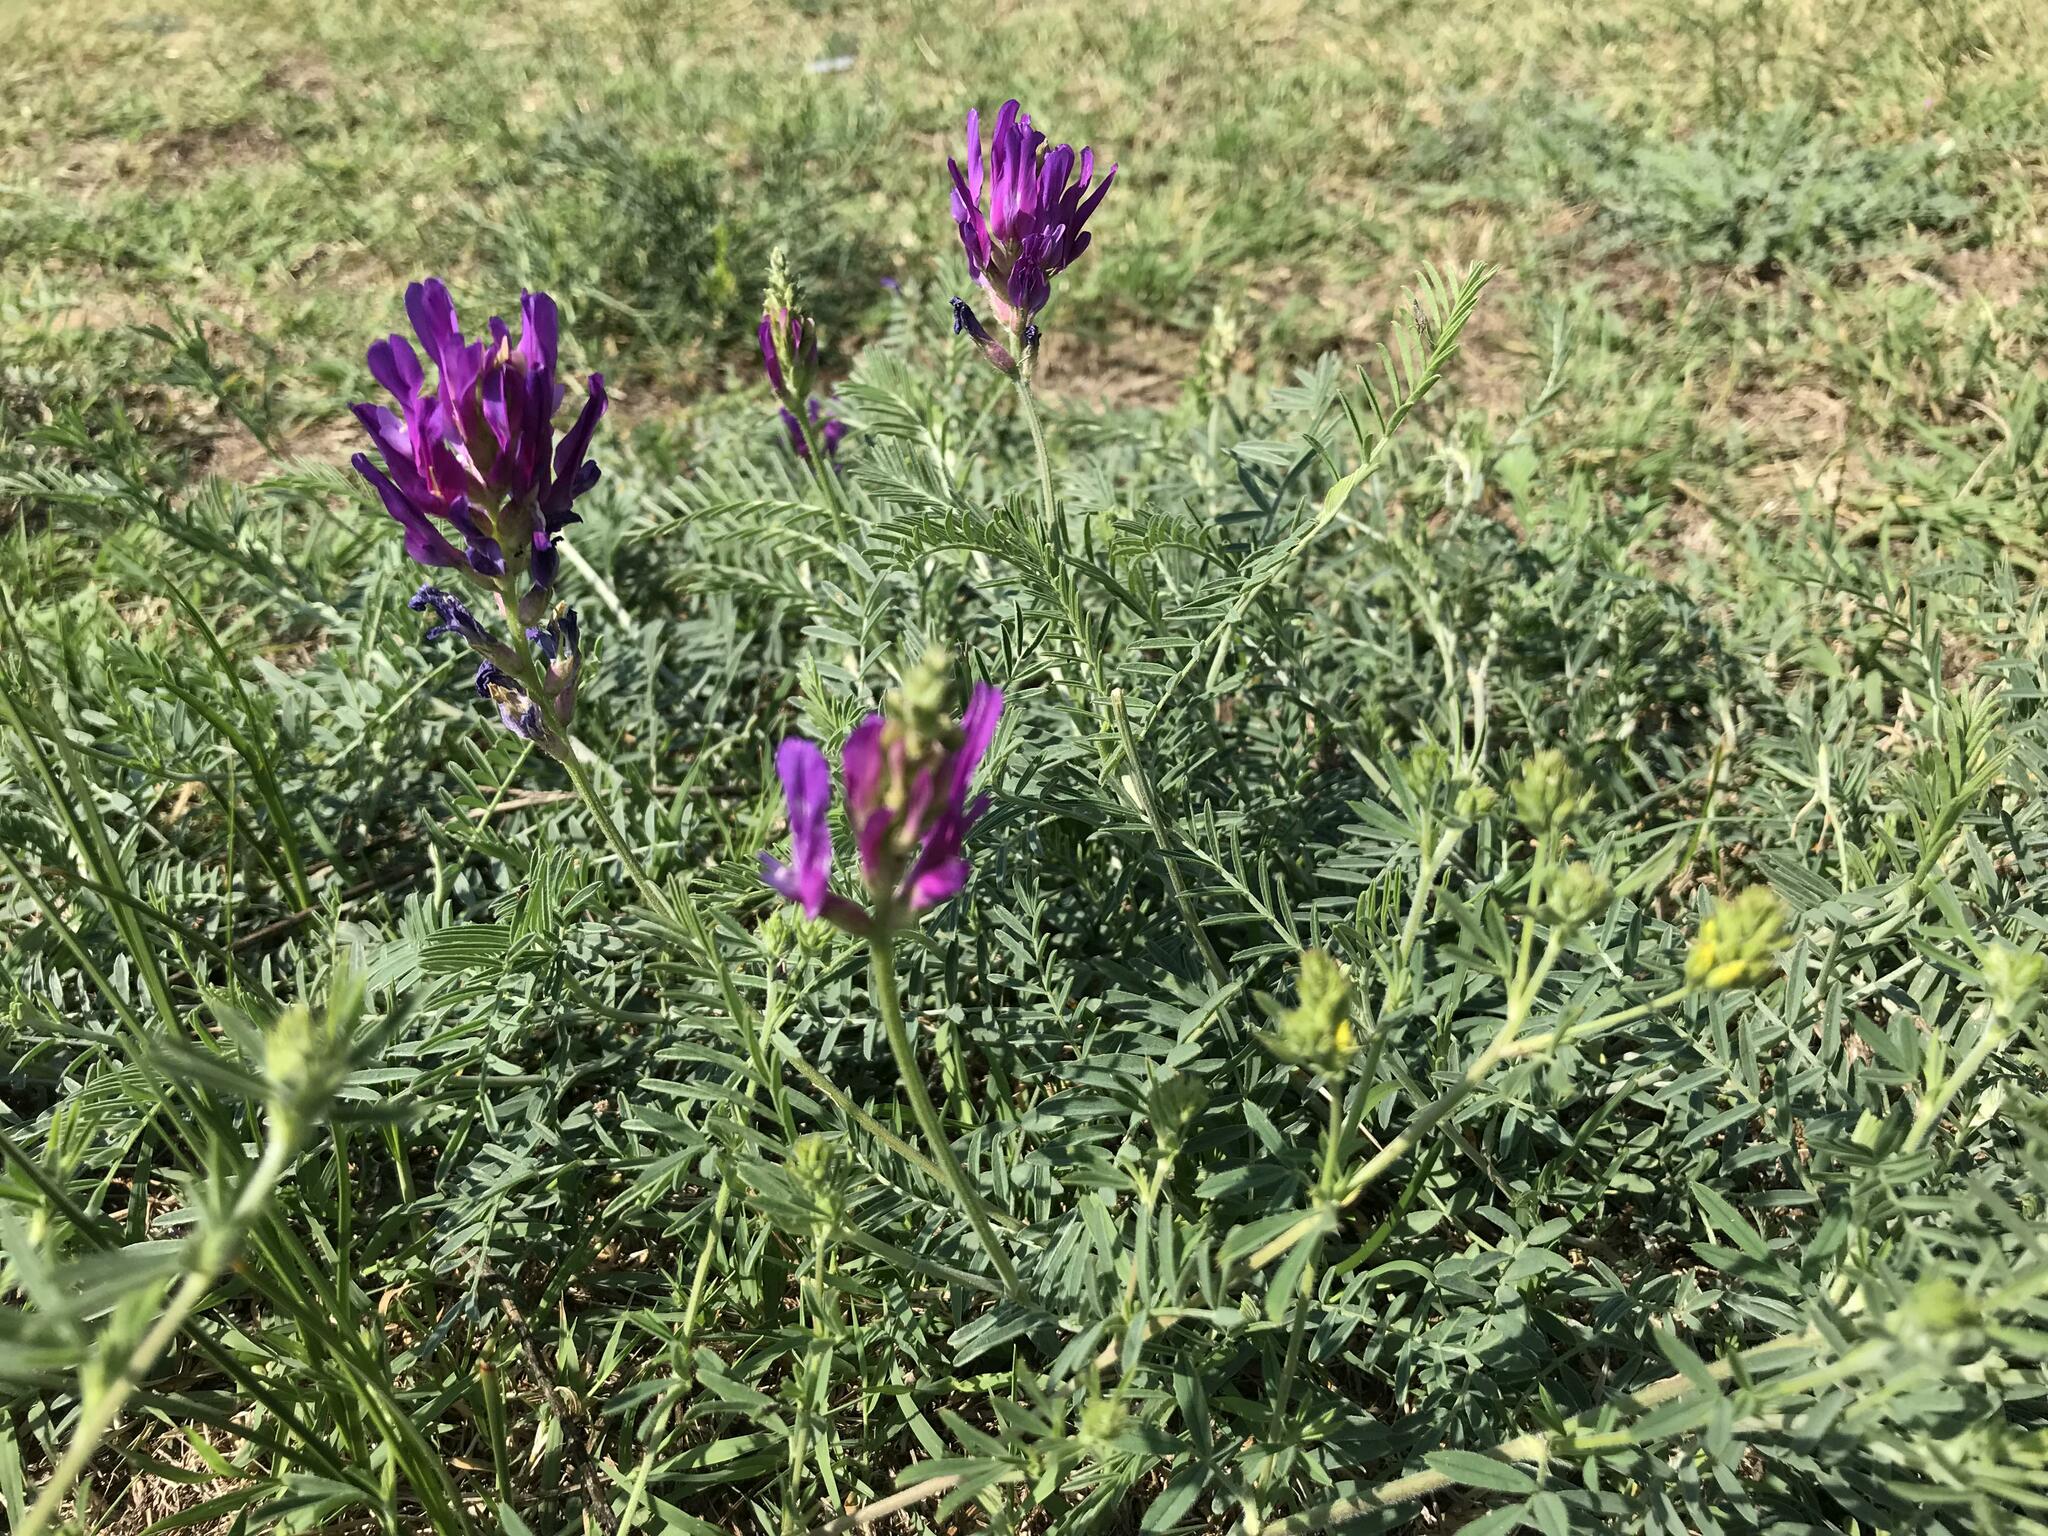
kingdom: Plantae
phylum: Tracheophyta
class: Magnoliopsida
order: Fabales
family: Fabaceae
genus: Astragalus
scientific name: Astragalus onobrychis
